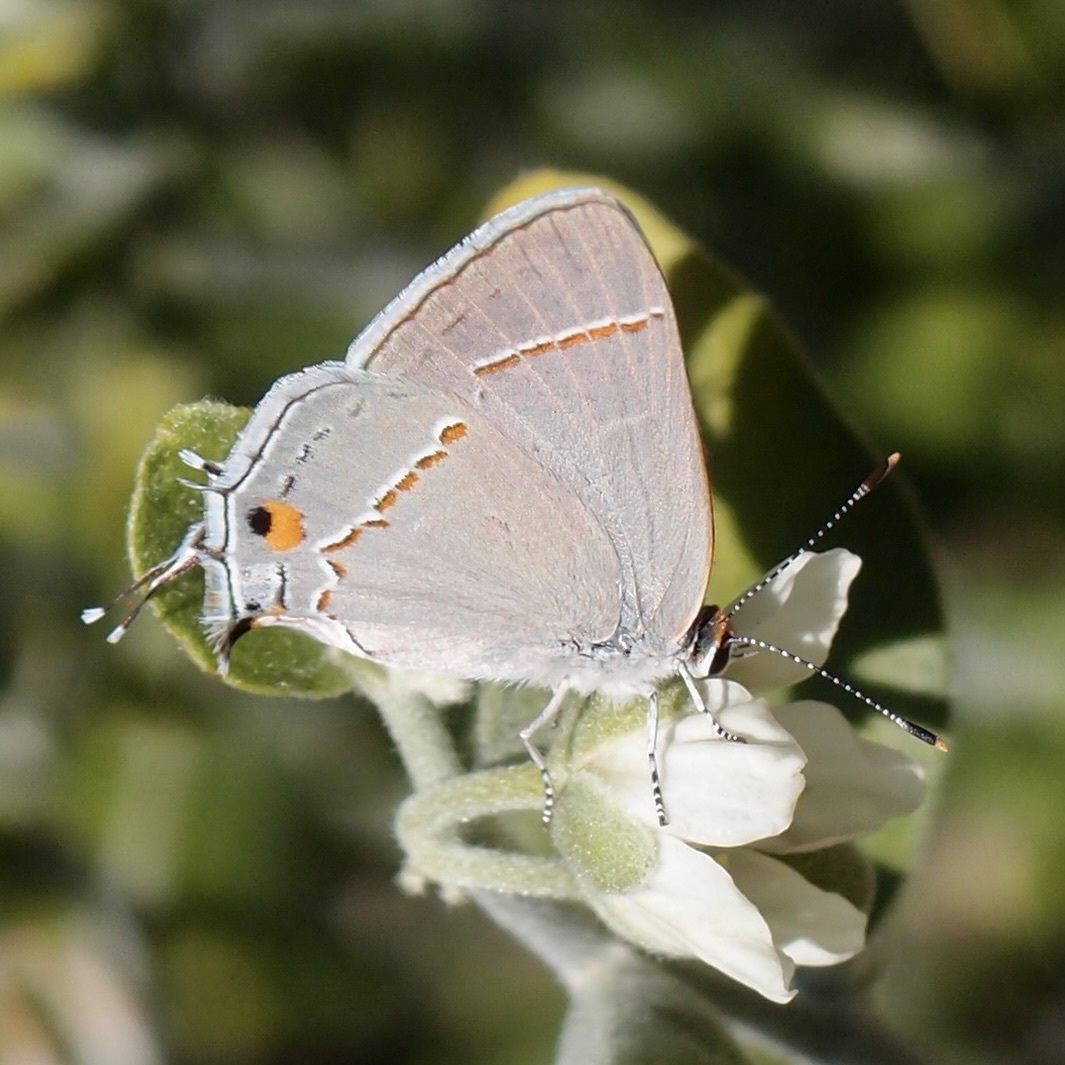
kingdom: Animalia
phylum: Arthropoda
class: Insecta
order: Lepidoptera
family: Lycaenidae
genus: Strymon
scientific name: Strymon melinus
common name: Gray hairstreak
